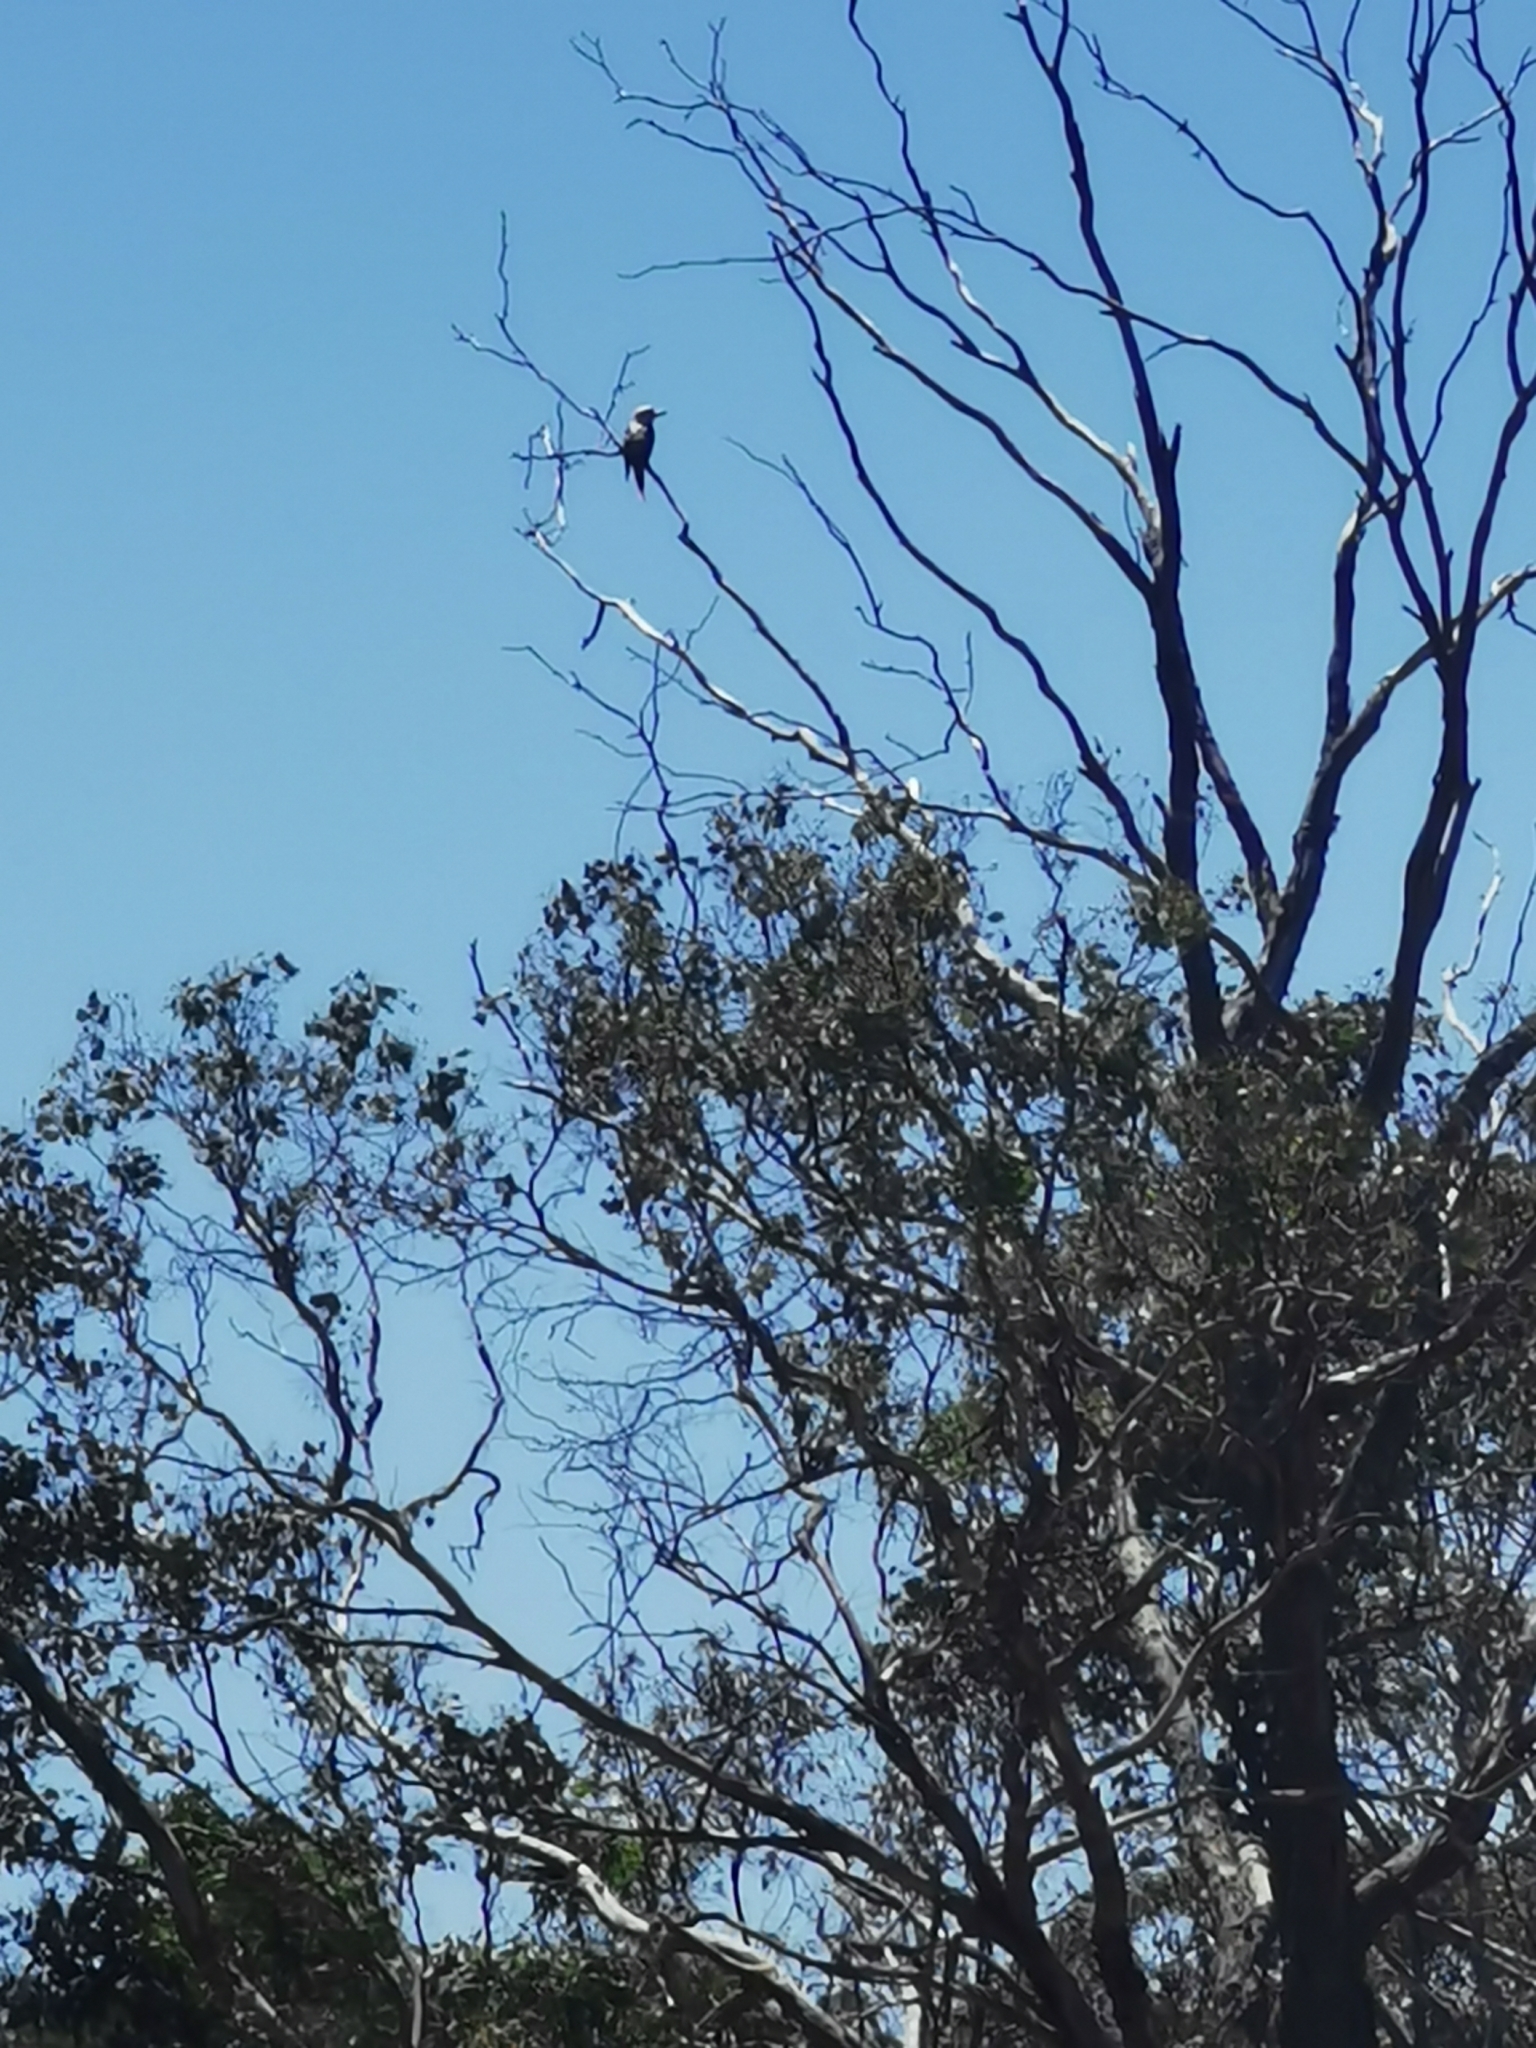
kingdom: Animalia
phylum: Chordata
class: Aves
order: Coraciiformes
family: Alcedinidae
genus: Dacelo
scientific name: Dacelo novaeguineae
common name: Laughing kookaburra
